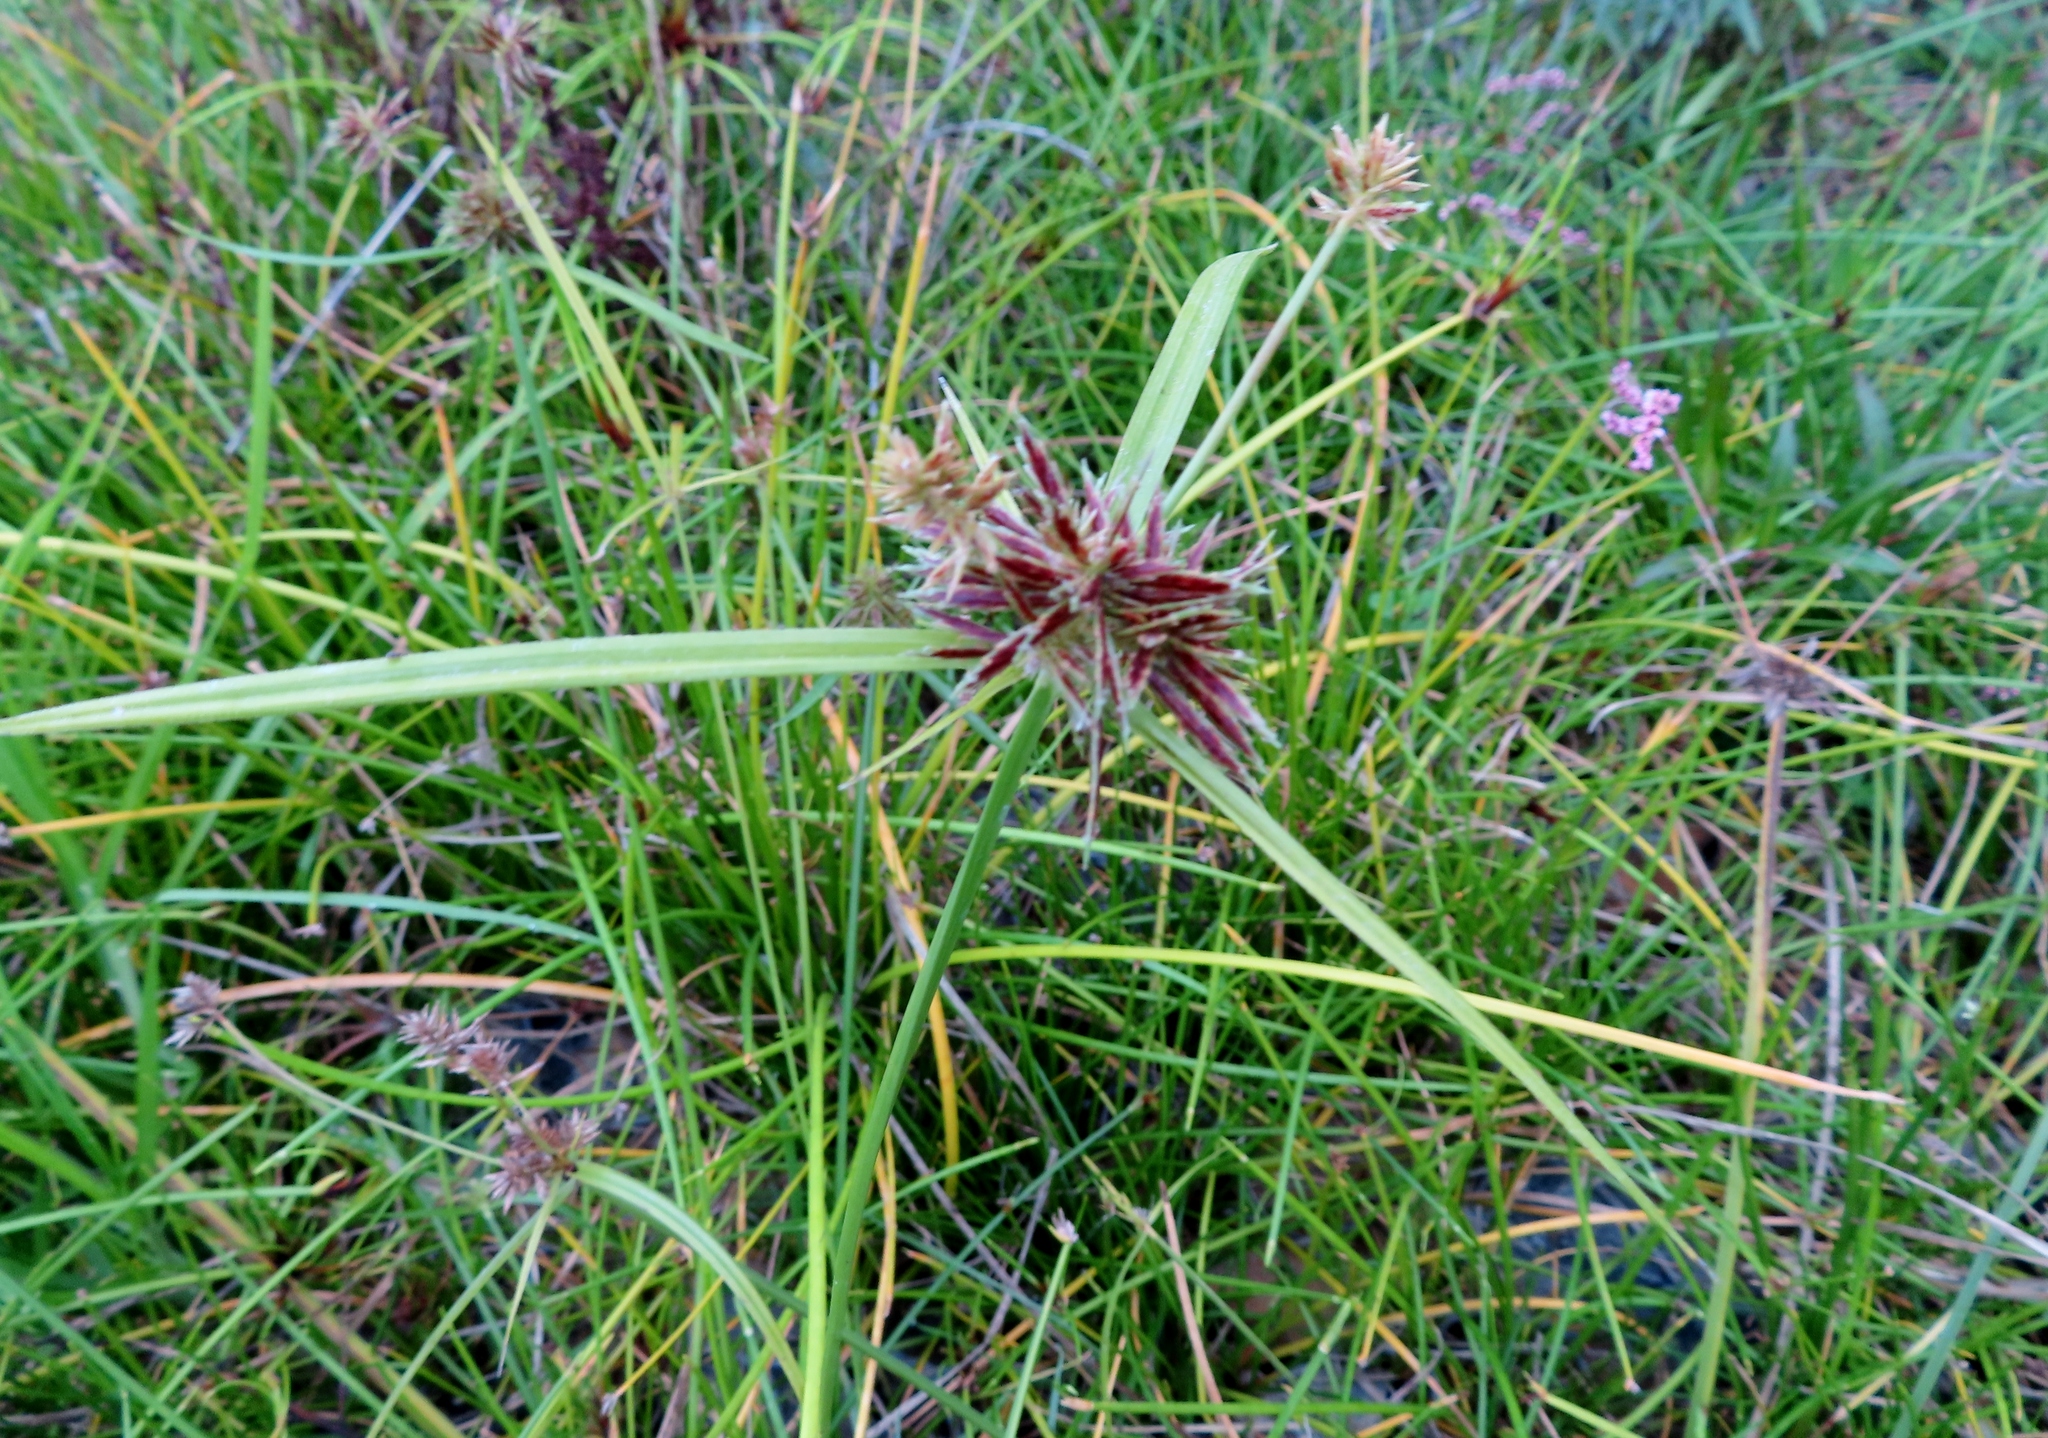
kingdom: Plantae
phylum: Tracheophyta
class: Liliopsida
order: Poales
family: Cyperaceae
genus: Cyperus
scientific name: Cyperus congestus
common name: Dense flat sedge
